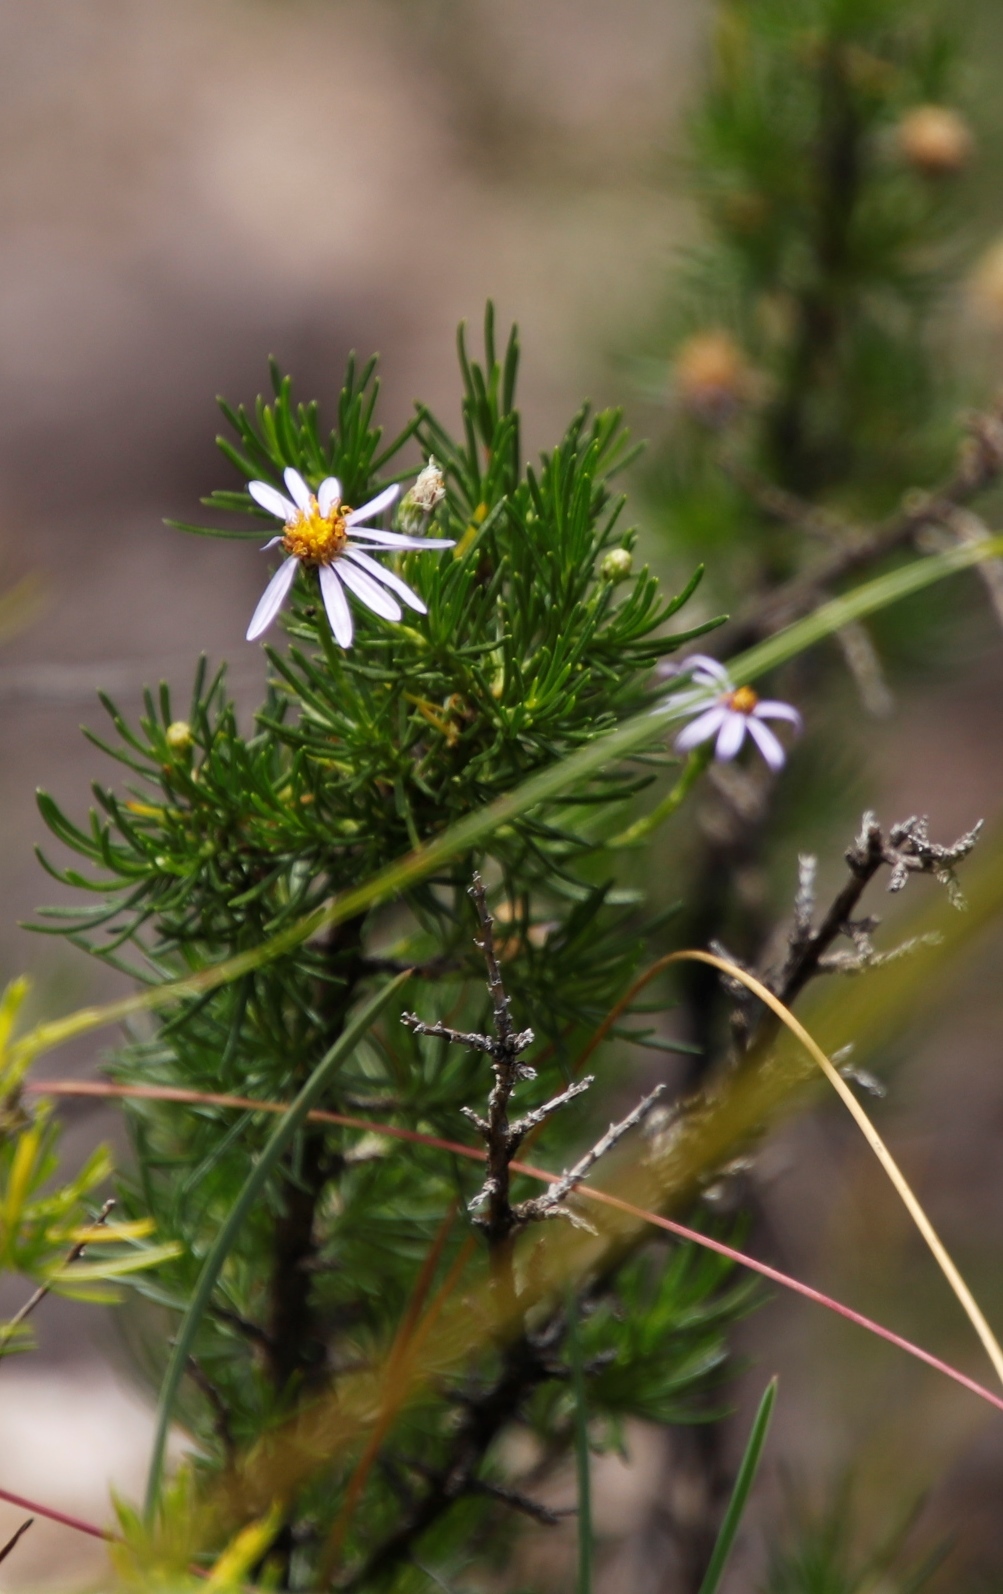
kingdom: Plantae
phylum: Tracheophyta
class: Magnoliopsida
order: Asterales
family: Asteraceae
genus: Felicia
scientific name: Felicia filifolia
